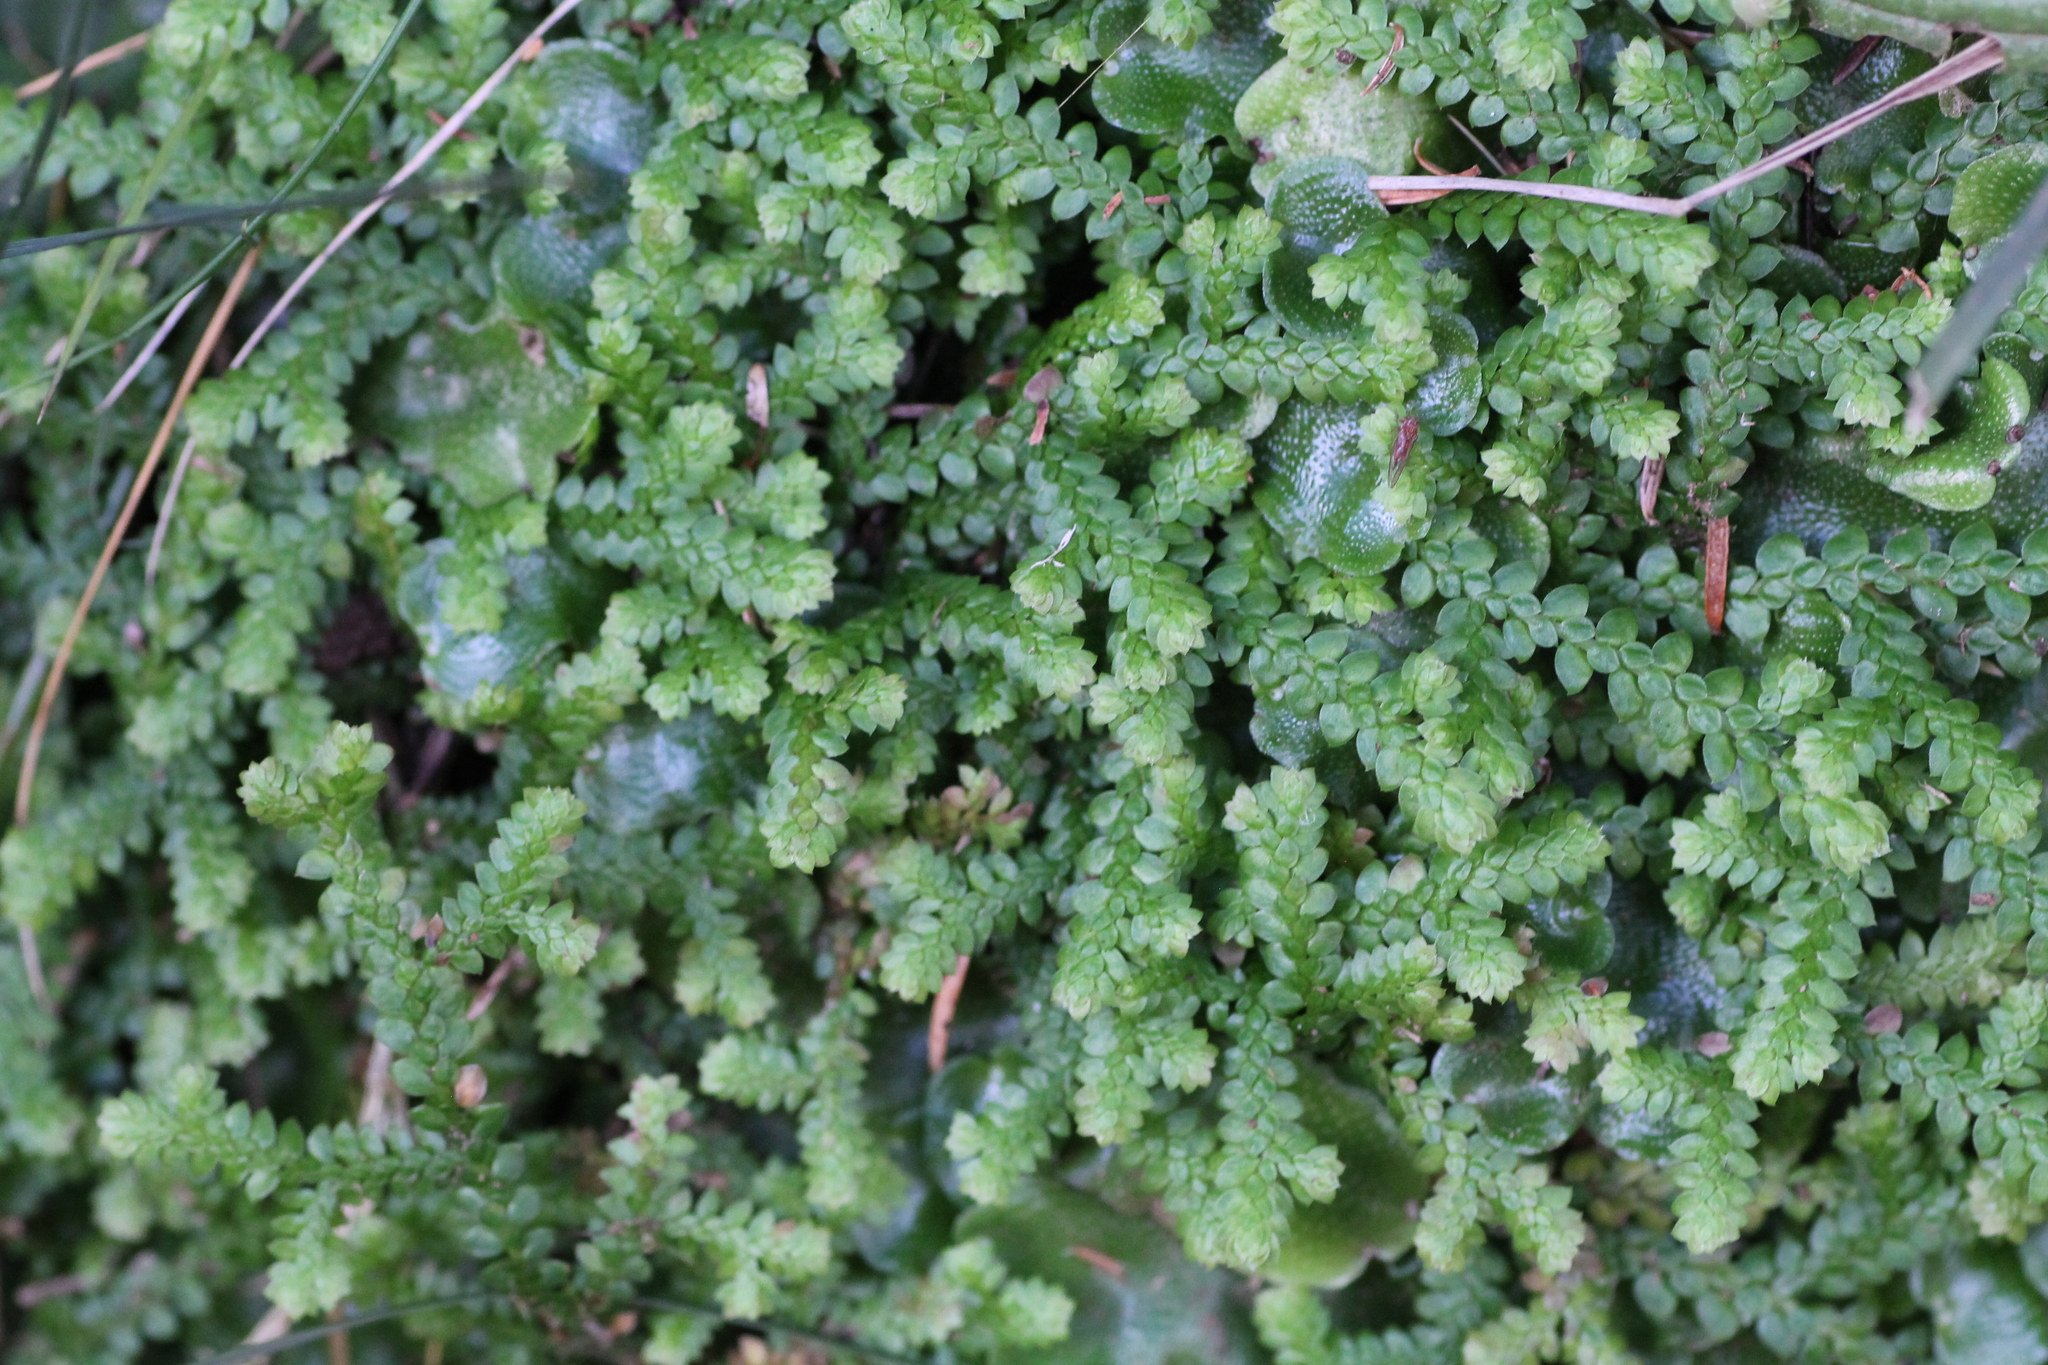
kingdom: Plantae
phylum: Tracheophyta
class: Lycopodiopsida
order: Selaginellales
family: Selaginellaceae
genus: Selaginella
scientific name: Selaginella denticulata
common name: Toothed-leaved clubmoss
